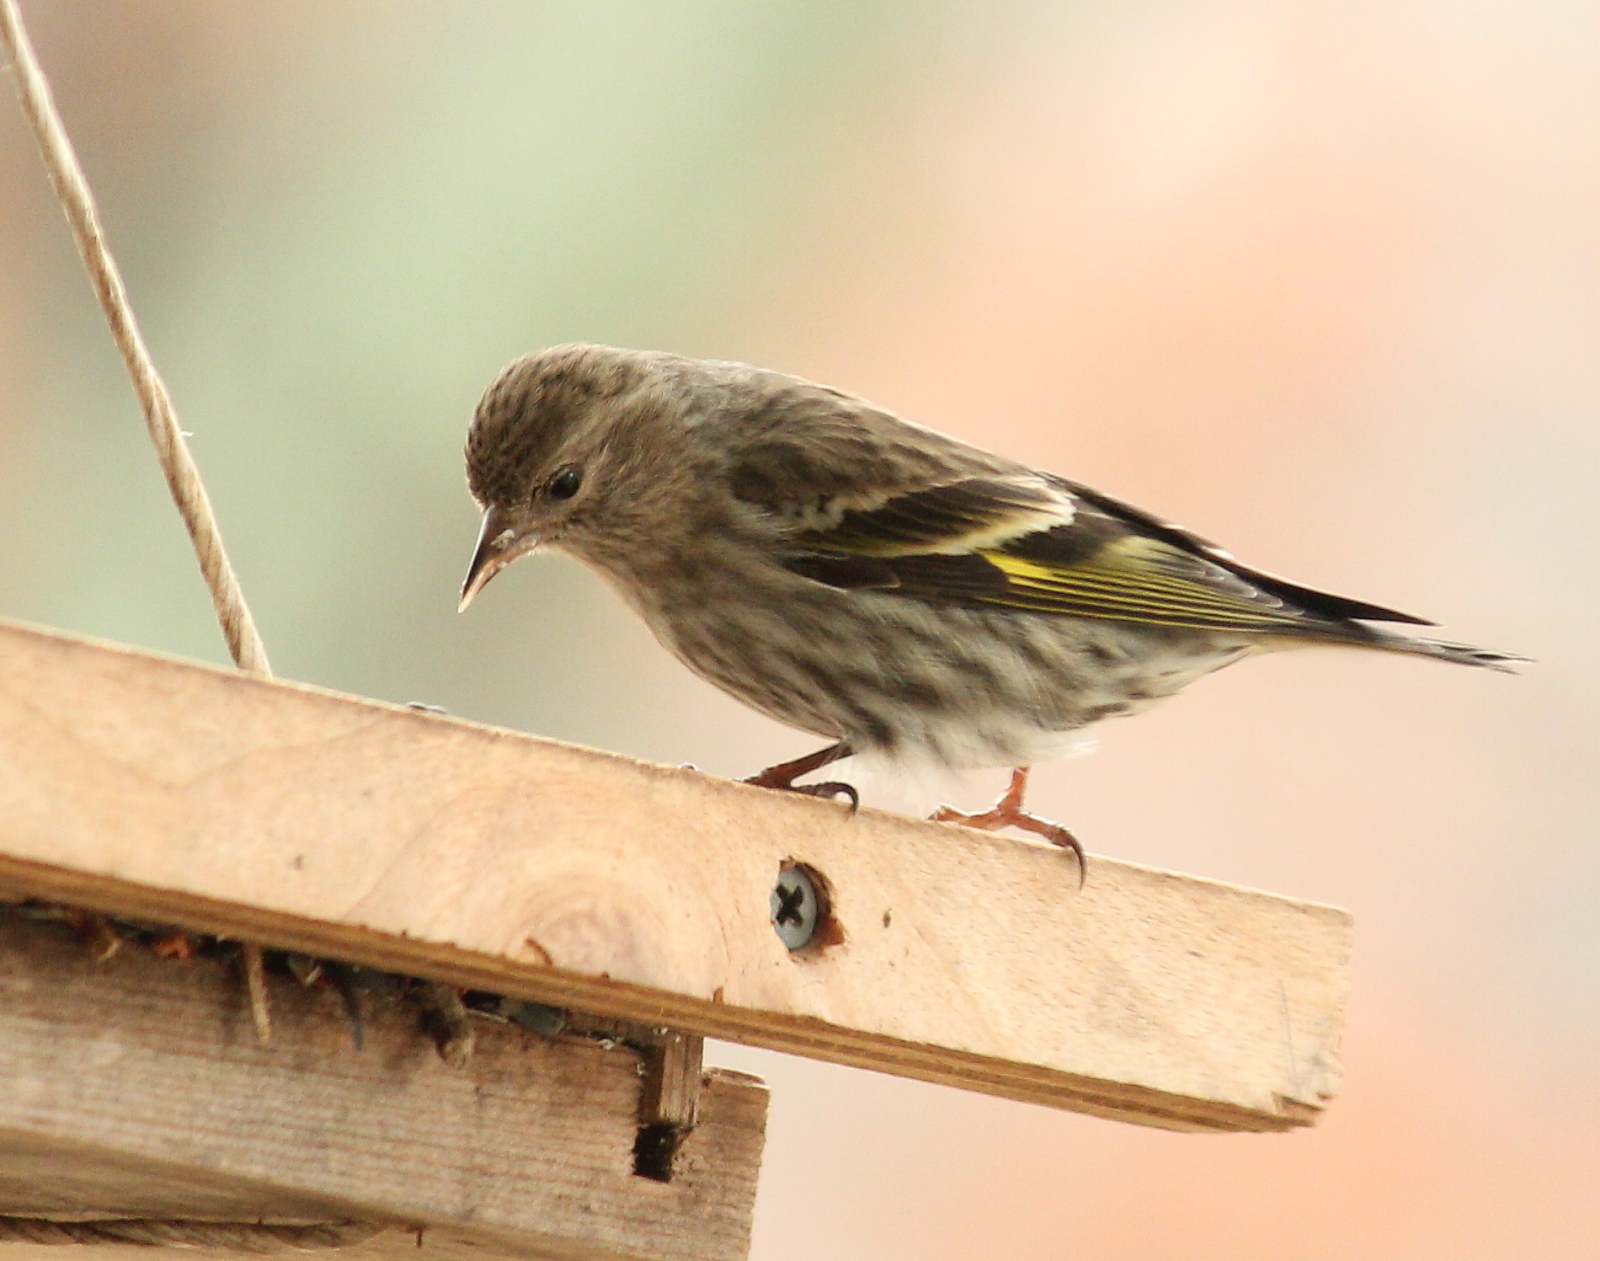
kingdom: Animalia
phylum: Chordata
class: Aves
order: Passeriformes
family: Fringillidae
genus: Spinus
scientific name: Spinus pinus
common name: Pine siskin
